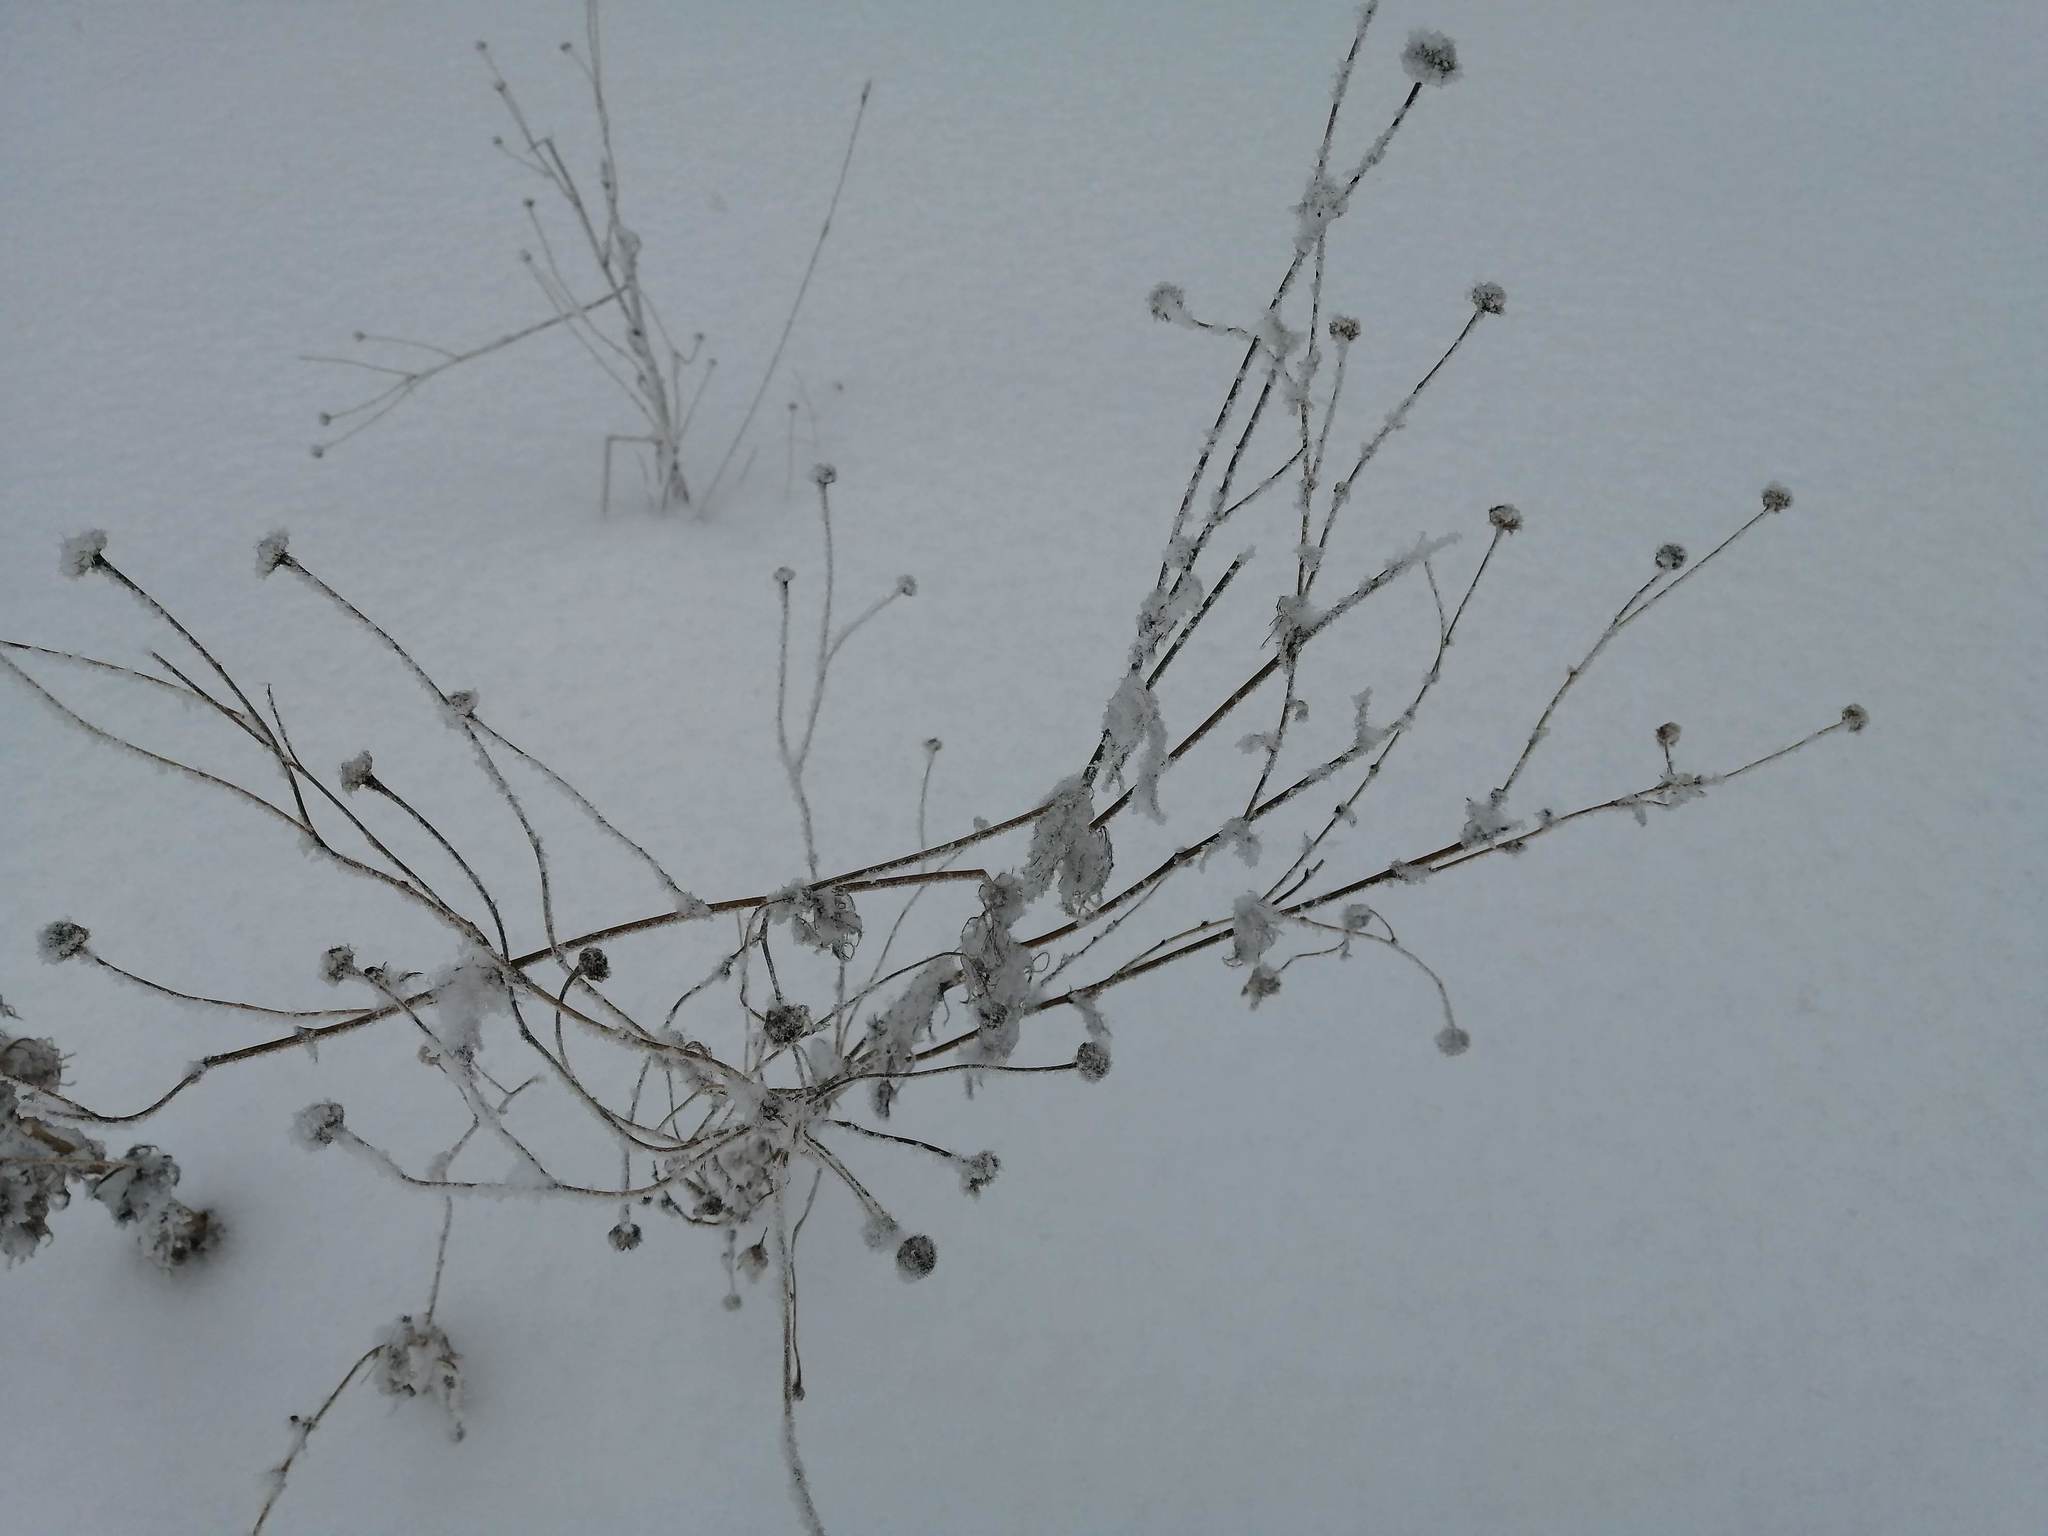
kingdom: Plantae
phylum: Tracheophyta
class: Magnoliopsida
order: Asterales
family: Asteraceae
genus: Tripleurospermum
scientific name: Tripleurospermum inodorum
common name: Scentless mayweed
